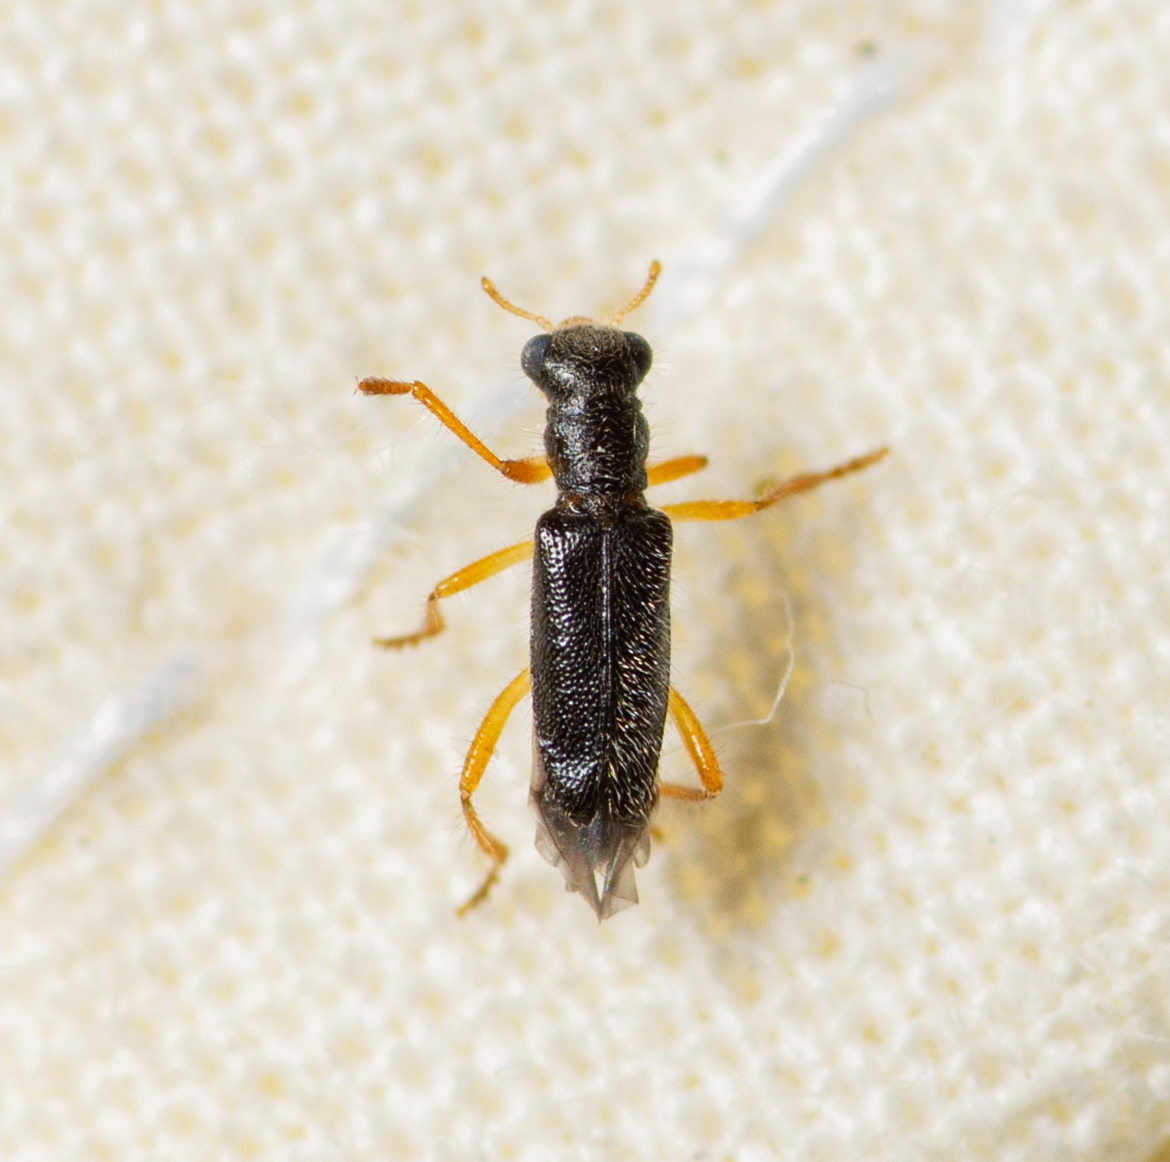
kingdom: Animalia
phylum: Arthropoda
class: Insecta
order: Coleoptera
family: Cleridae
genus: Wolcottia
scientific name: Wolcottia pedalis
